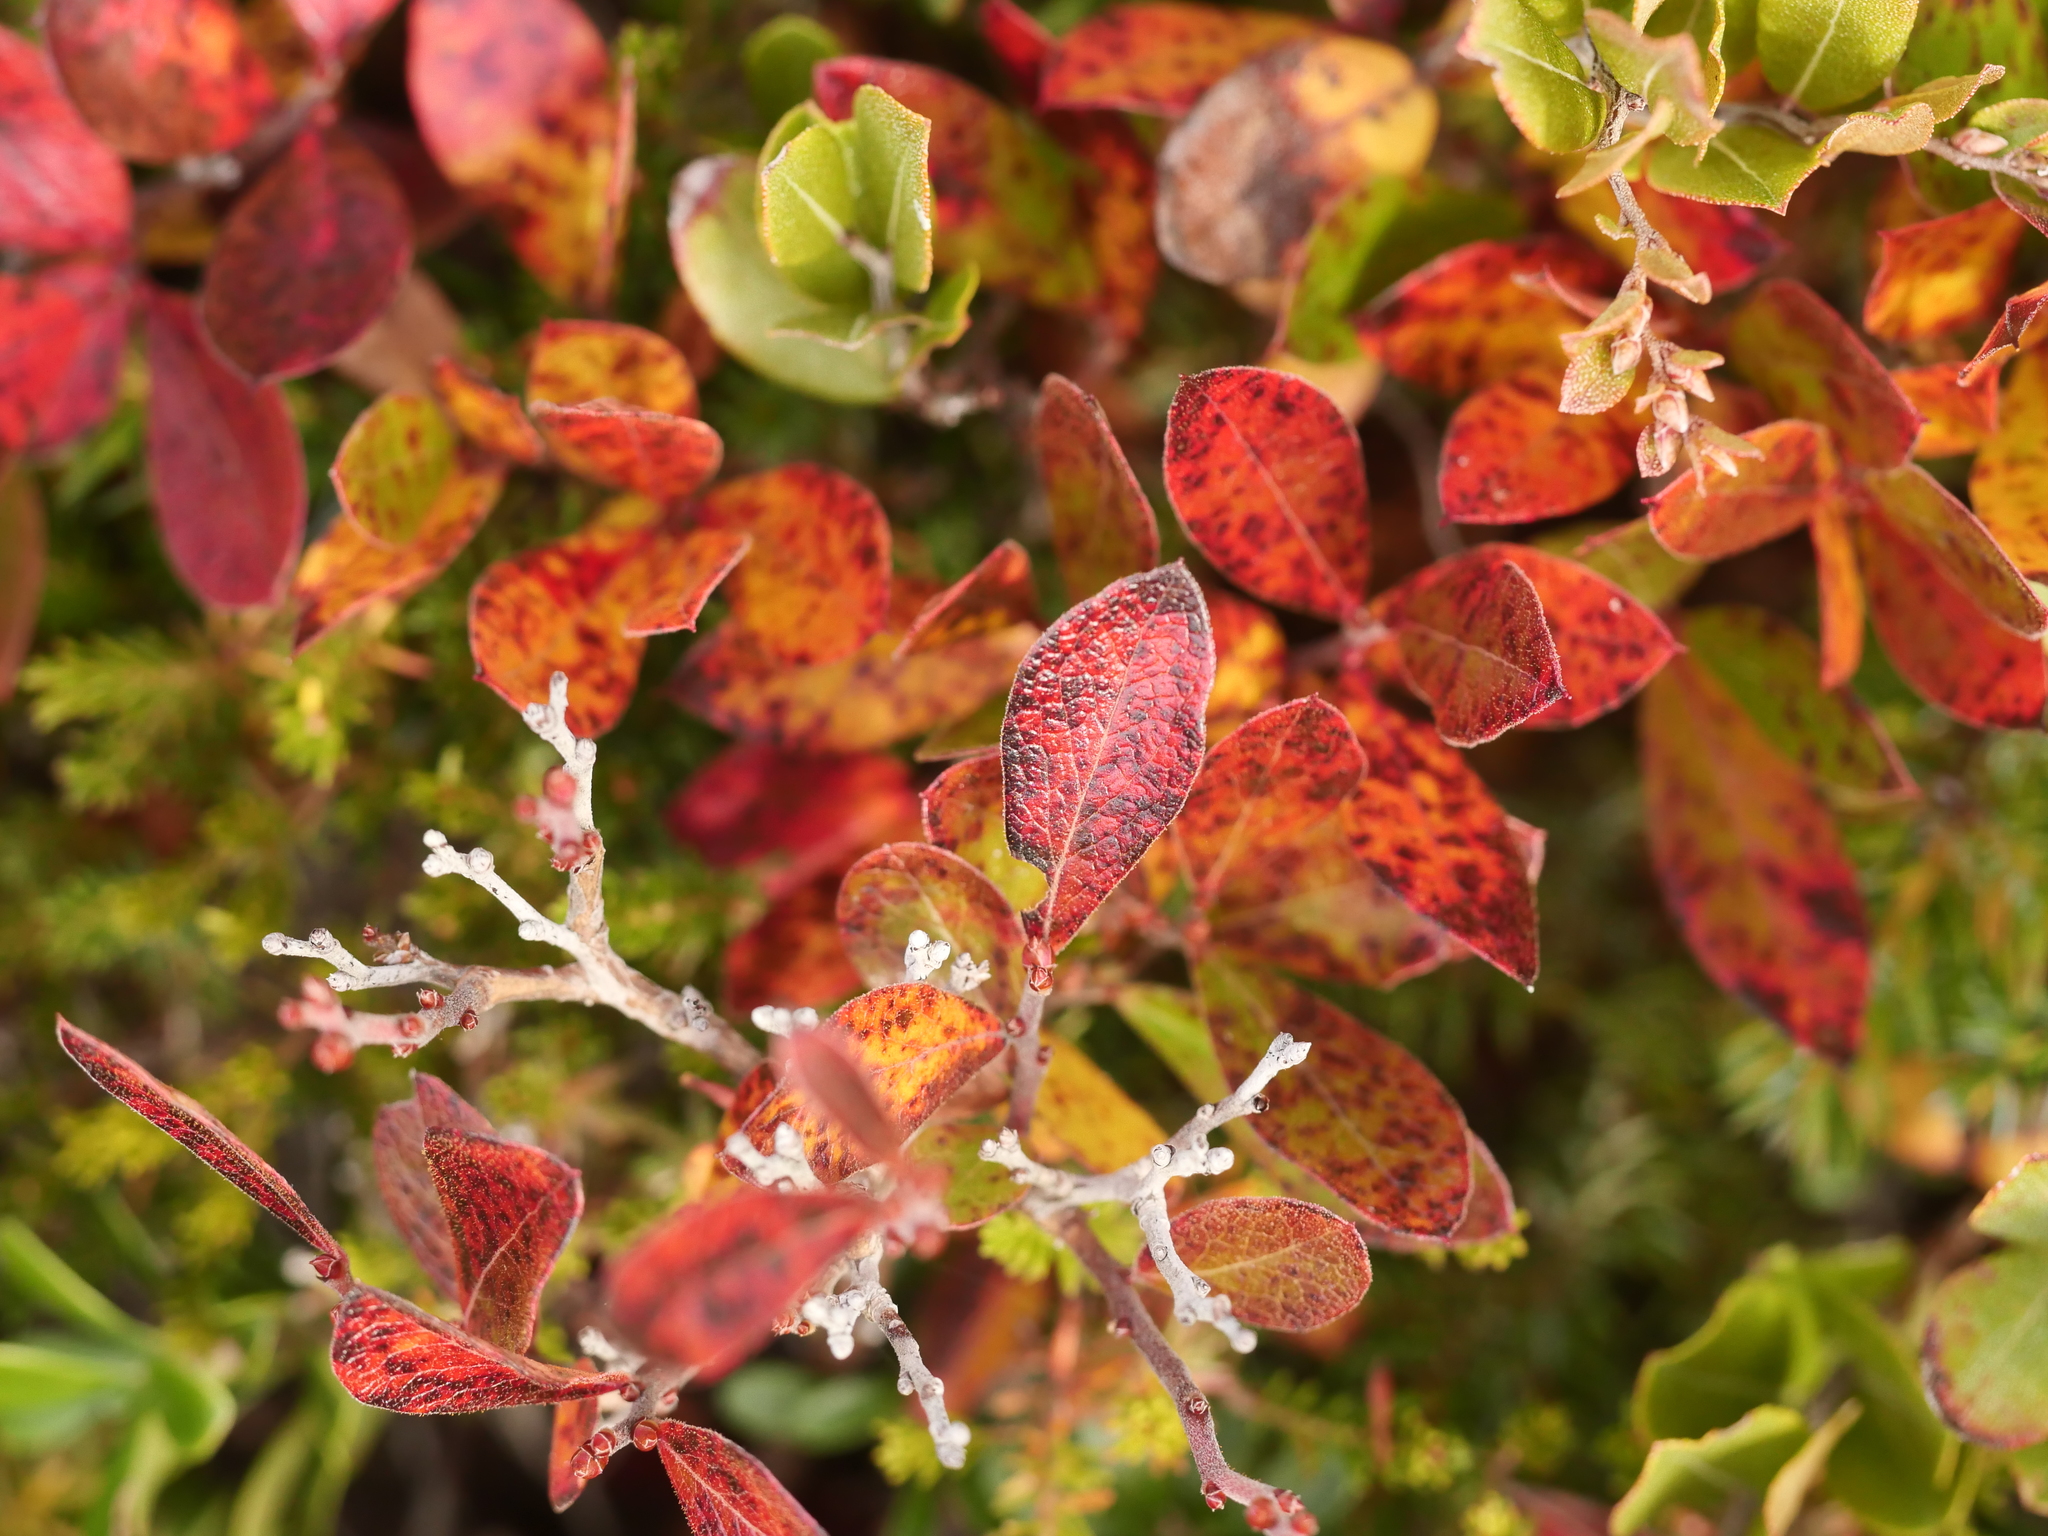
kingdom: Plantae
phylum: Tracheophyta
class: Magnoliopsida
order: Ericales
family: Ericaceae
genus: Gaylussacia
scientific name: Gaylussacia bigeloviana
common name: Bog huckleberry
